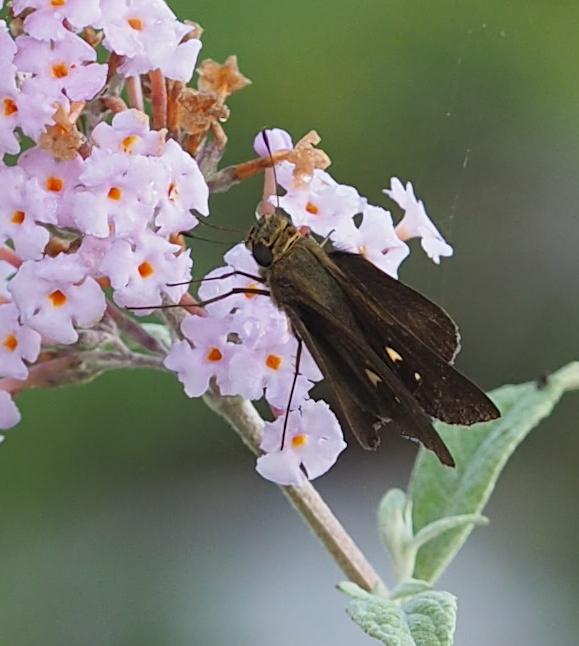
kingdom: Animalia
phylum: Arthropoda
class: Insecta
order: Lepidoptera
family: Hesperiidae
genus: Panoquina
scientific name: Panoquina ocola
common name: Ocola skipper
